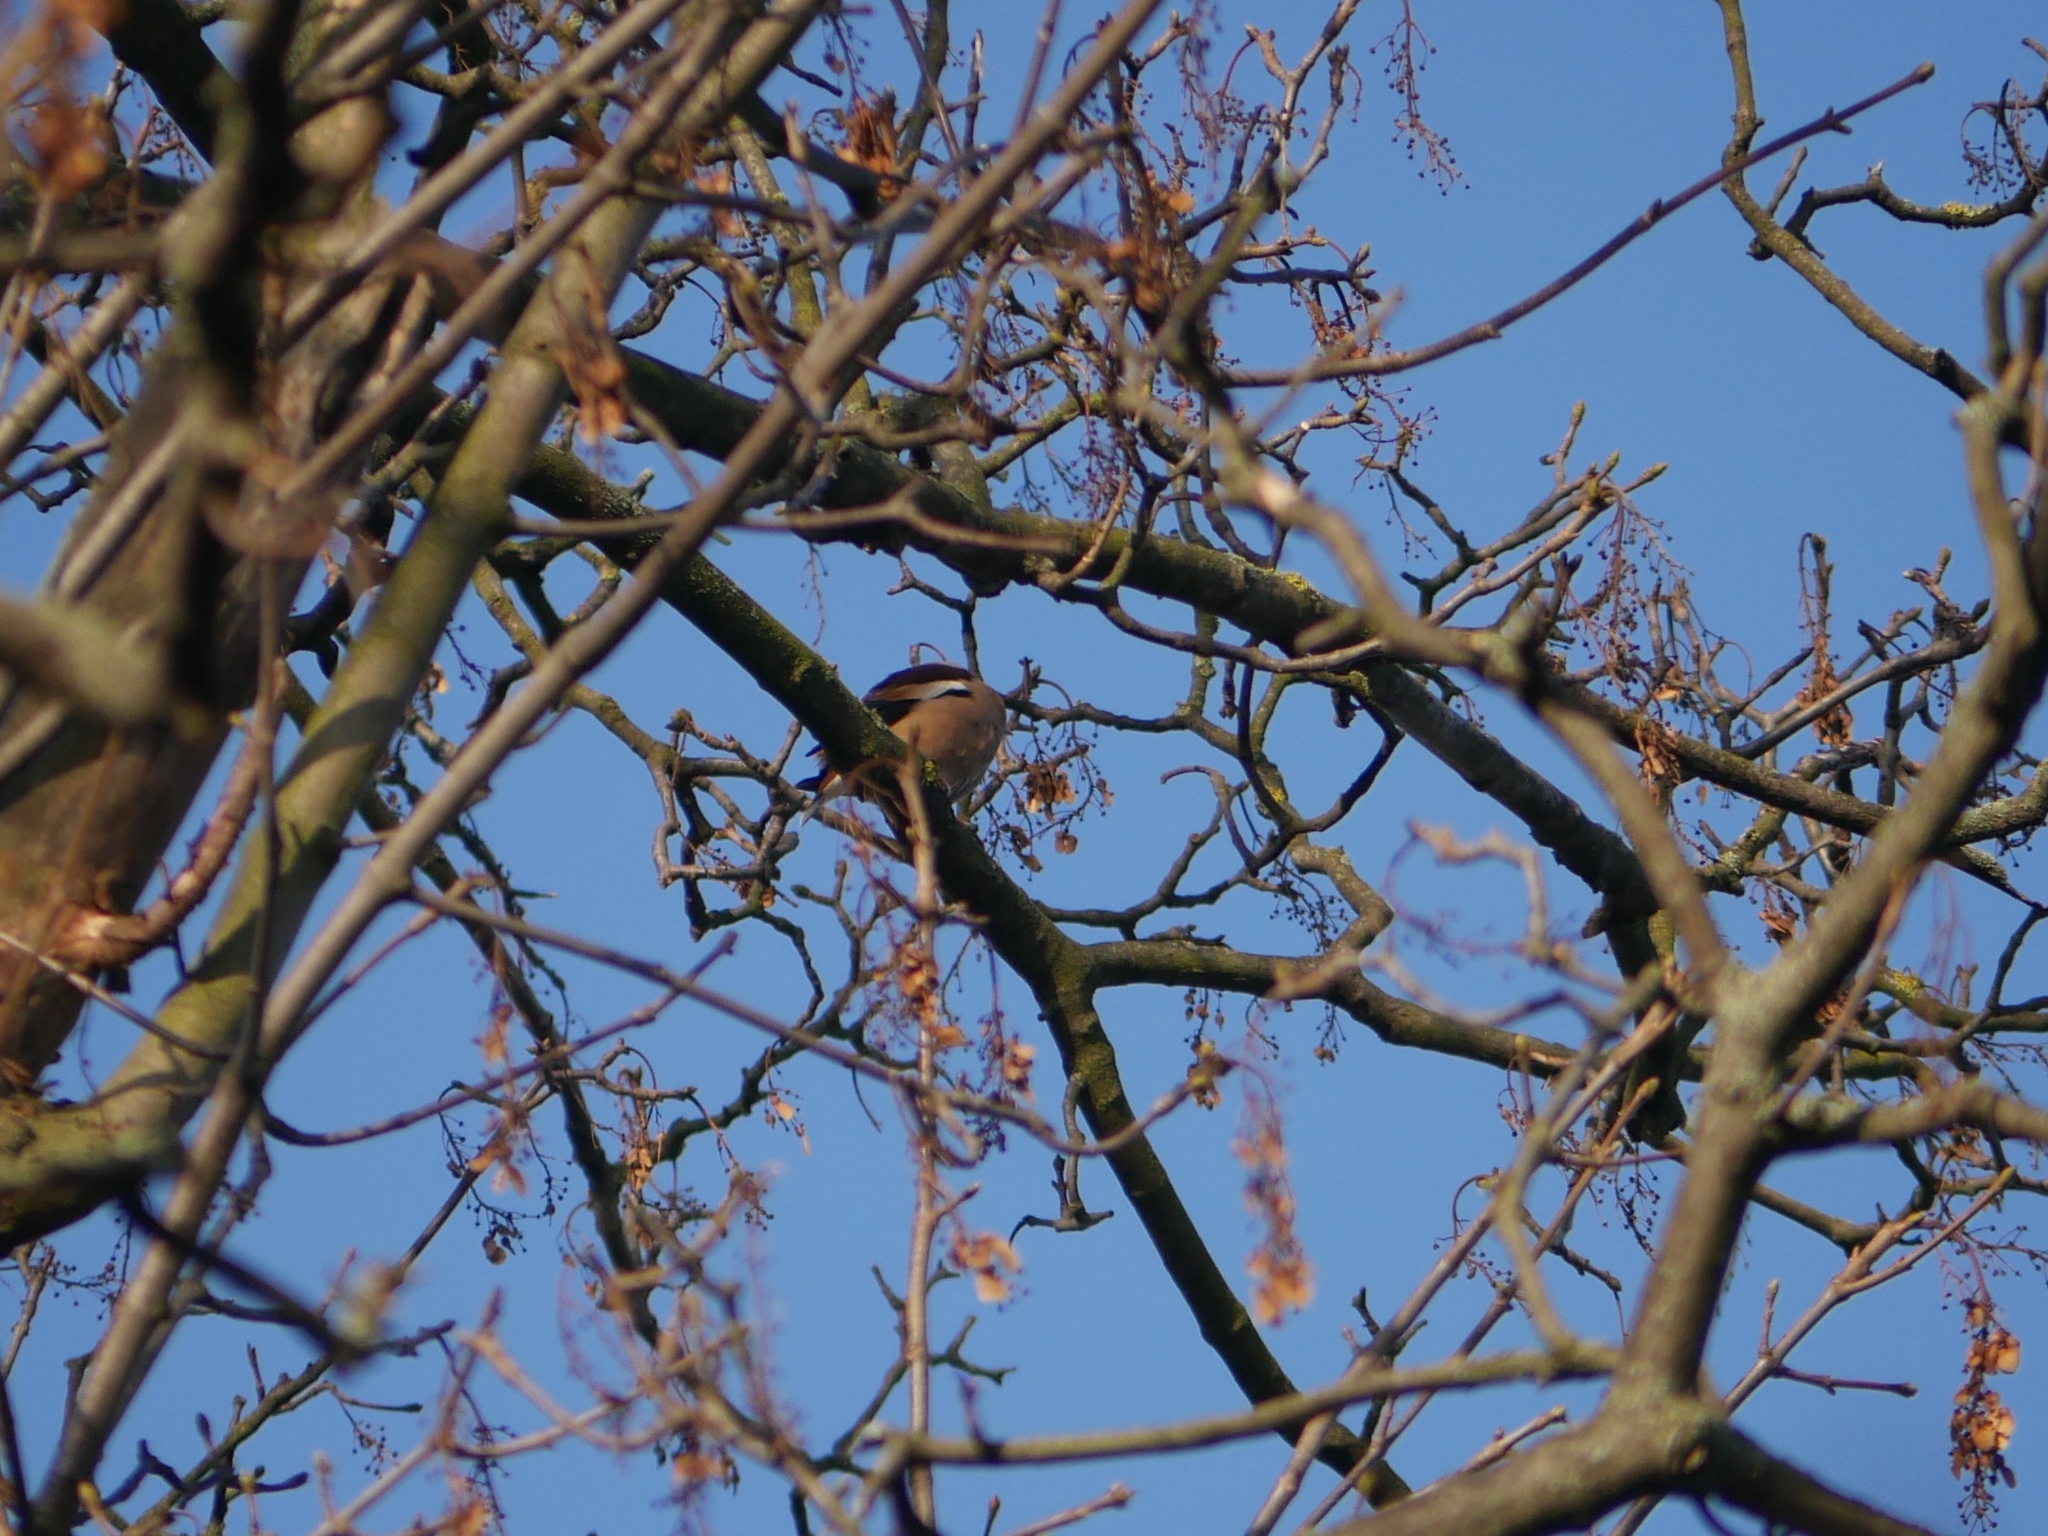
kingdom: Animalia
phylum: Chordata
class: Aves
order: Passeriformes
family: Fringillidae
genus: Coccothraustes
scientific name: Coccothraustes coccothraustes
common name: Hawfinch
